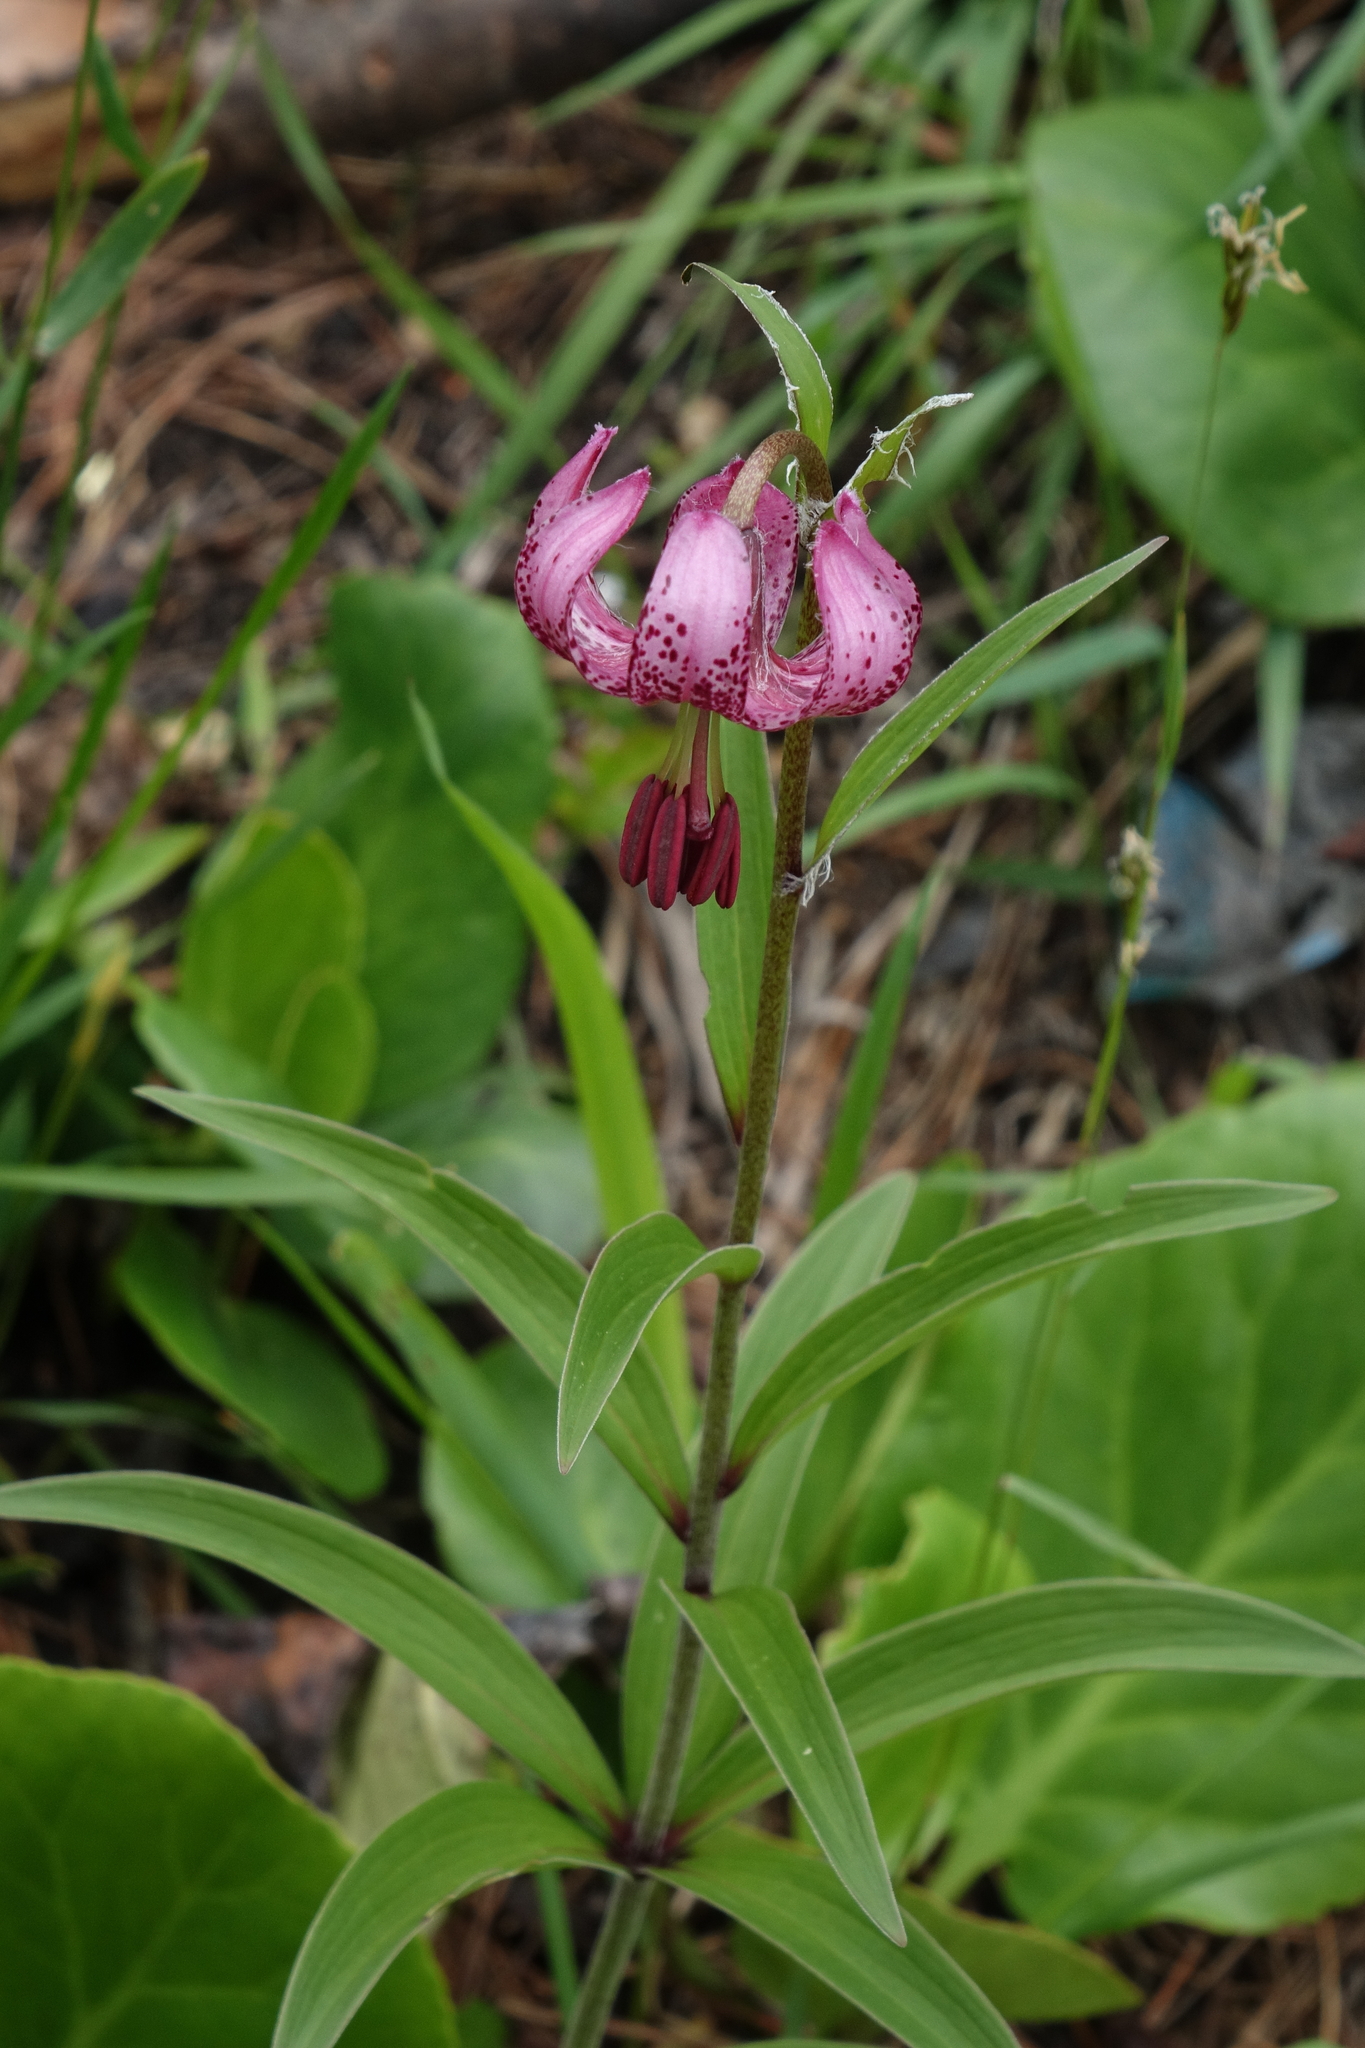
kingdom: Plantae
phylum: Tracheophyta
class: Liliopsida
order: Liliales
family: Liliaceae
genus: Lilium
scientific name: Lilium martagon
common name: Martagon lily
